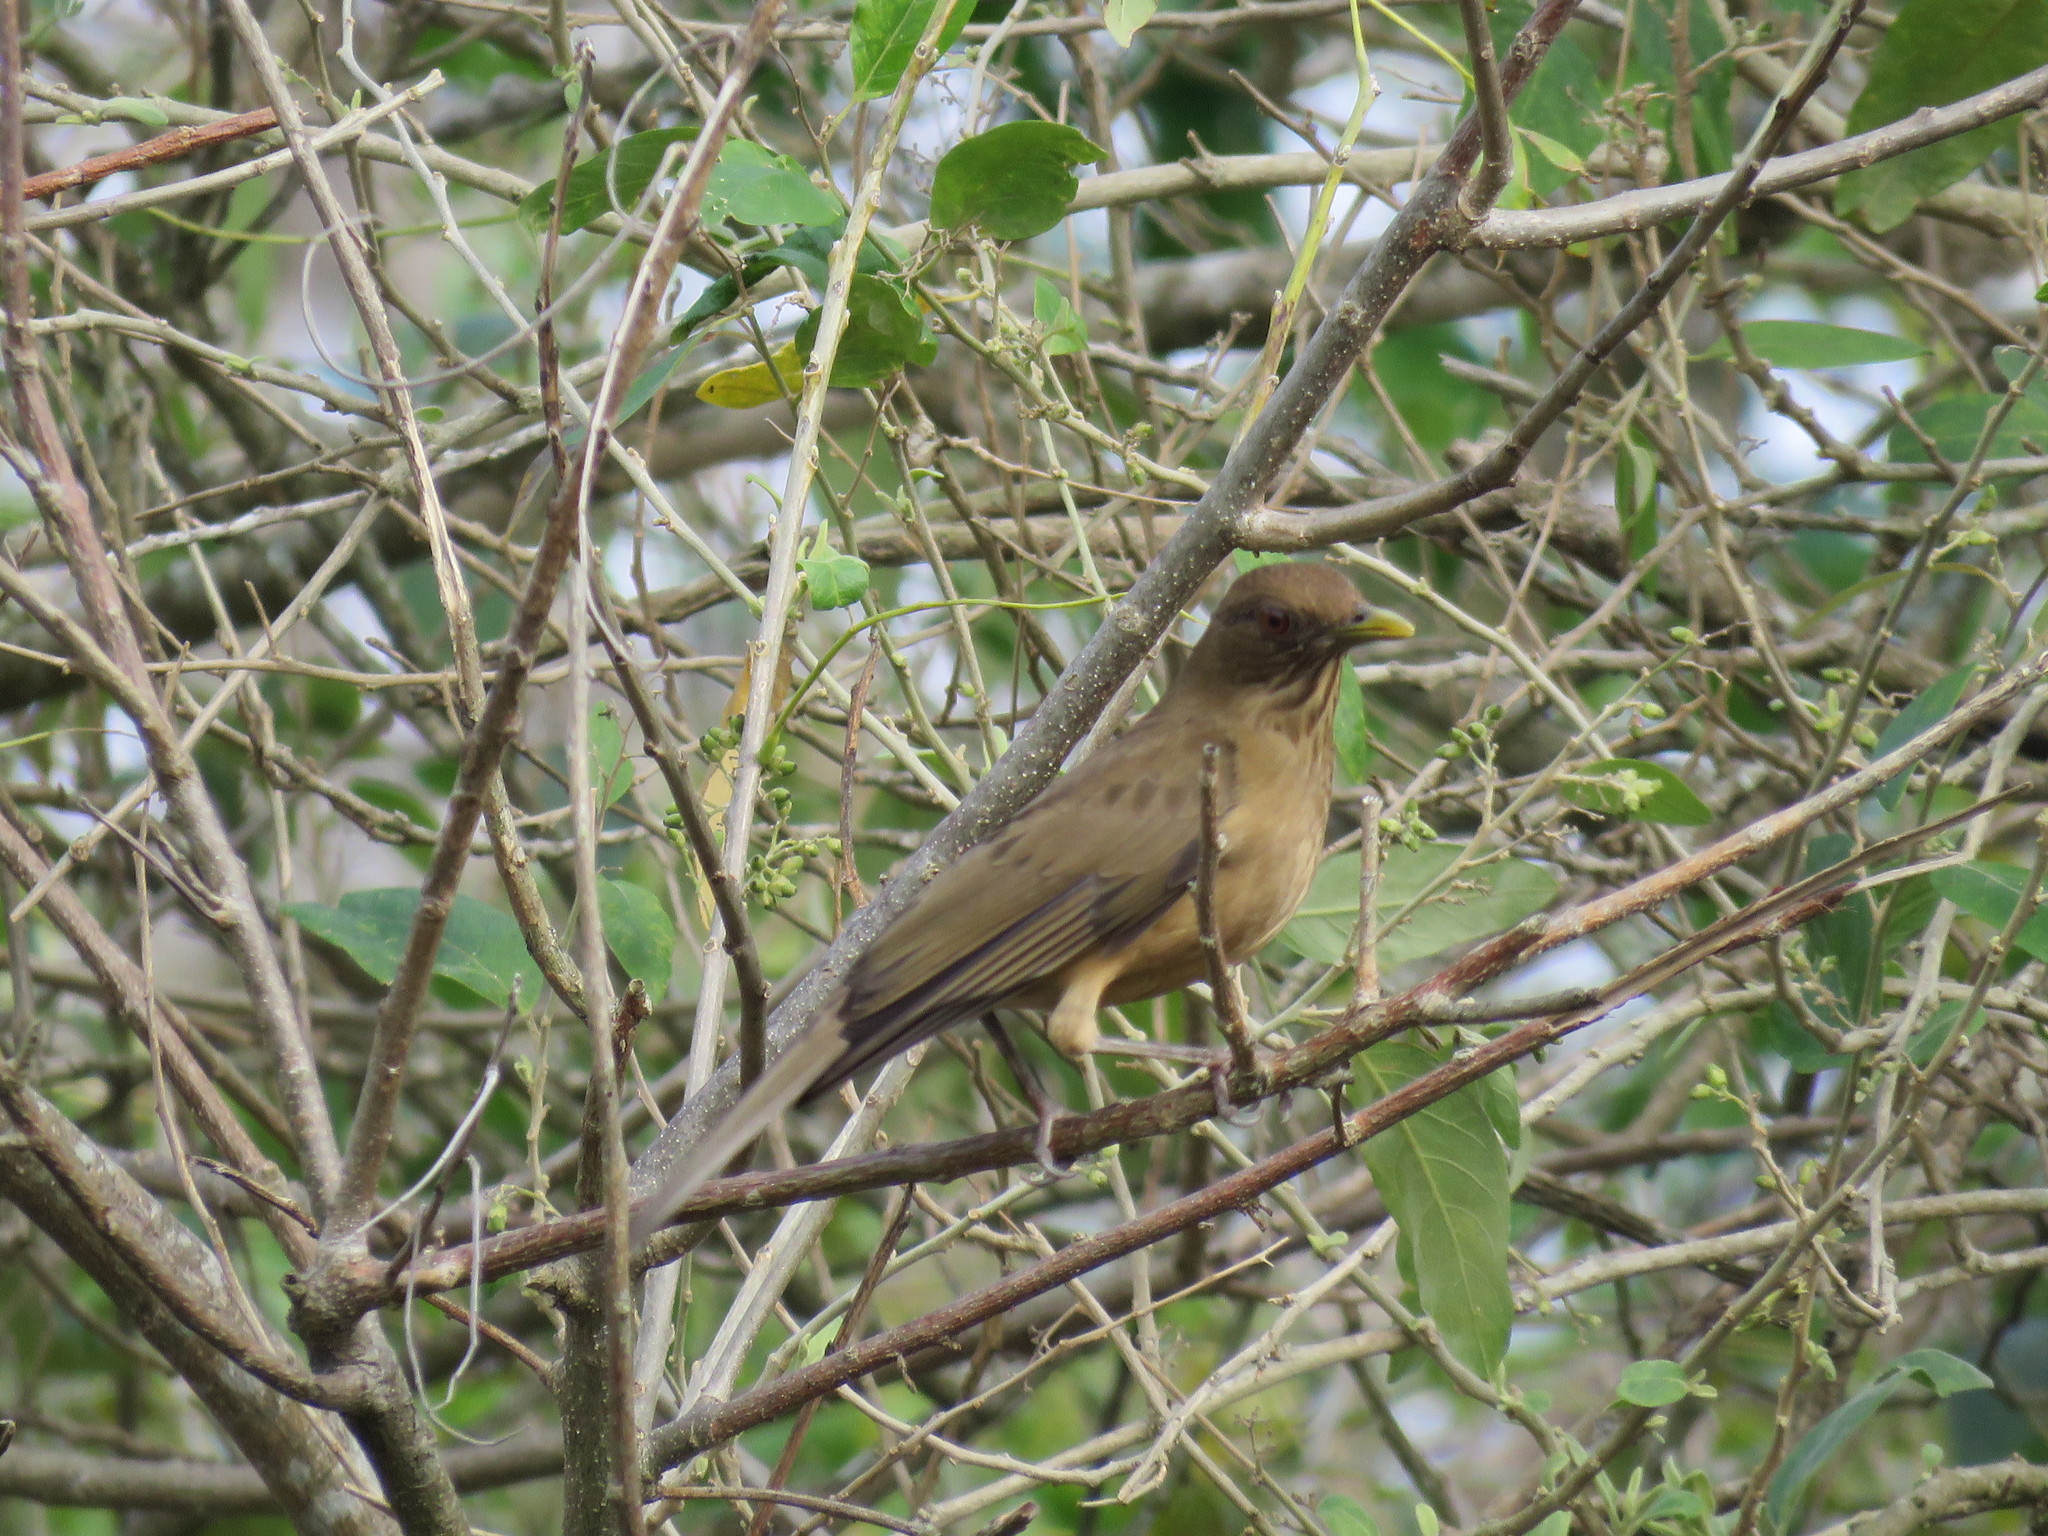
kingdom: Animalia
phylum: Chordata
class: Aves
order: Passeriformes
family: Turdidae
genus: Turdus
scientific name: Turdus grayi
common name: Clay-colored thrush
